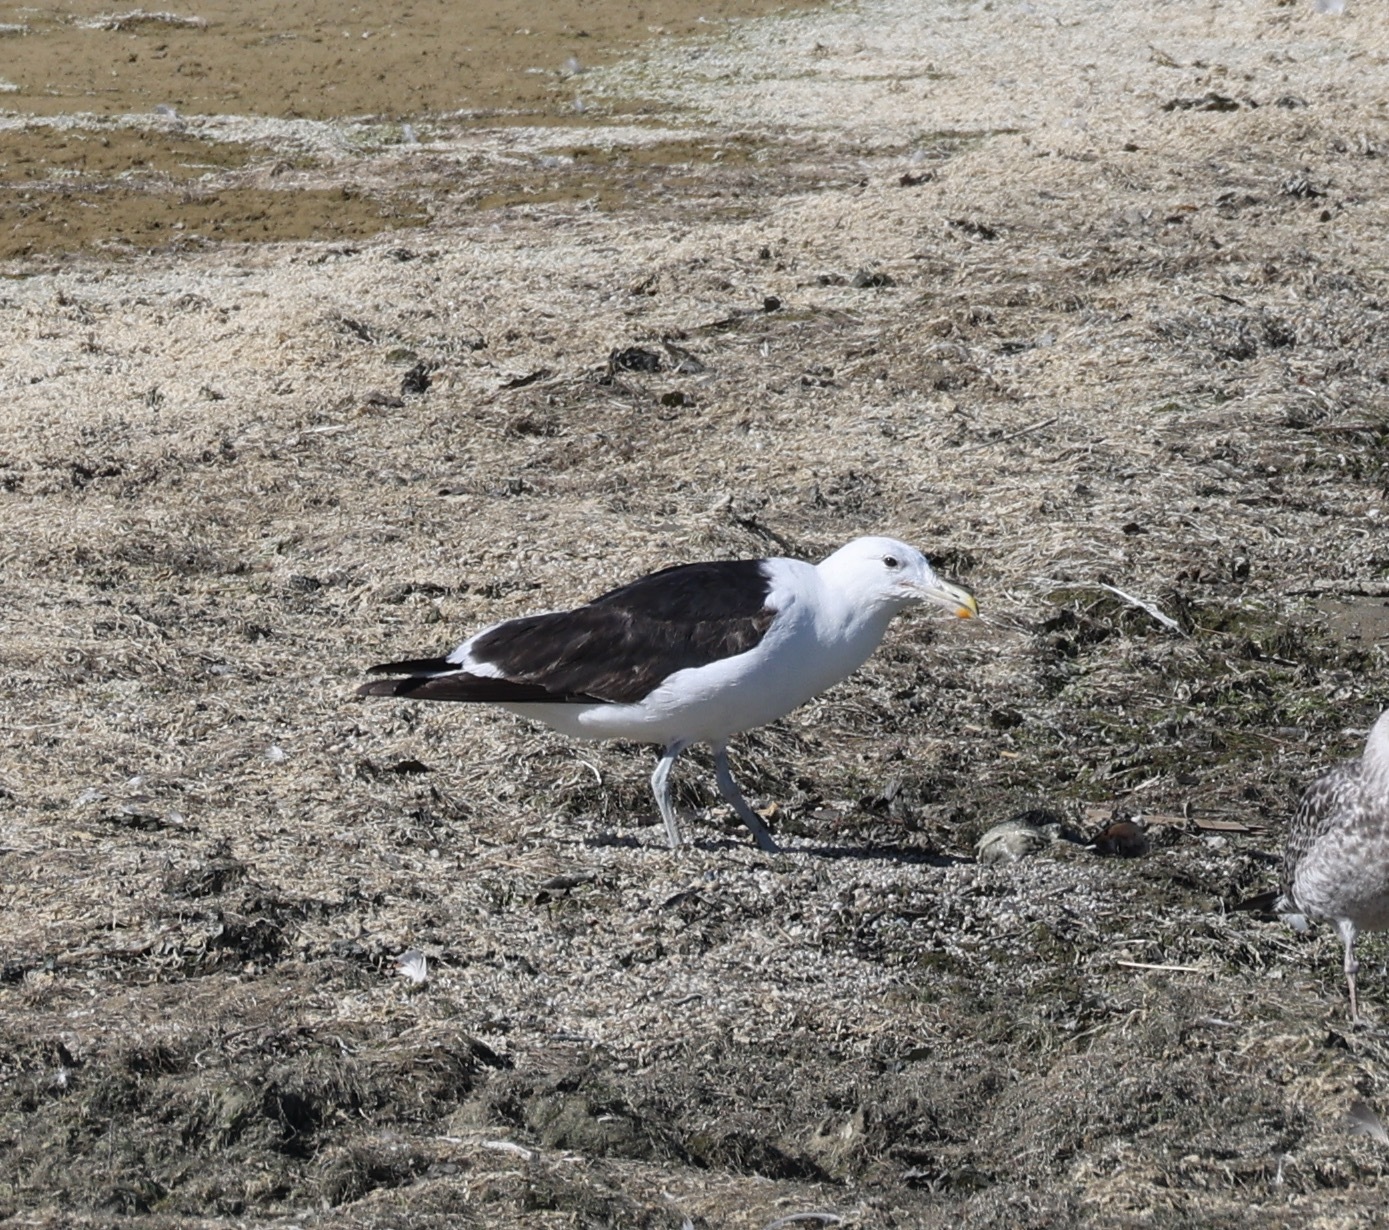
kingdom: Animalia
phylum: Chordata
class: Aves
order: Charadriiformes
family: Laridae
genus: Larus
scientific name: Larus dominicanus
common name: Kelp gull
